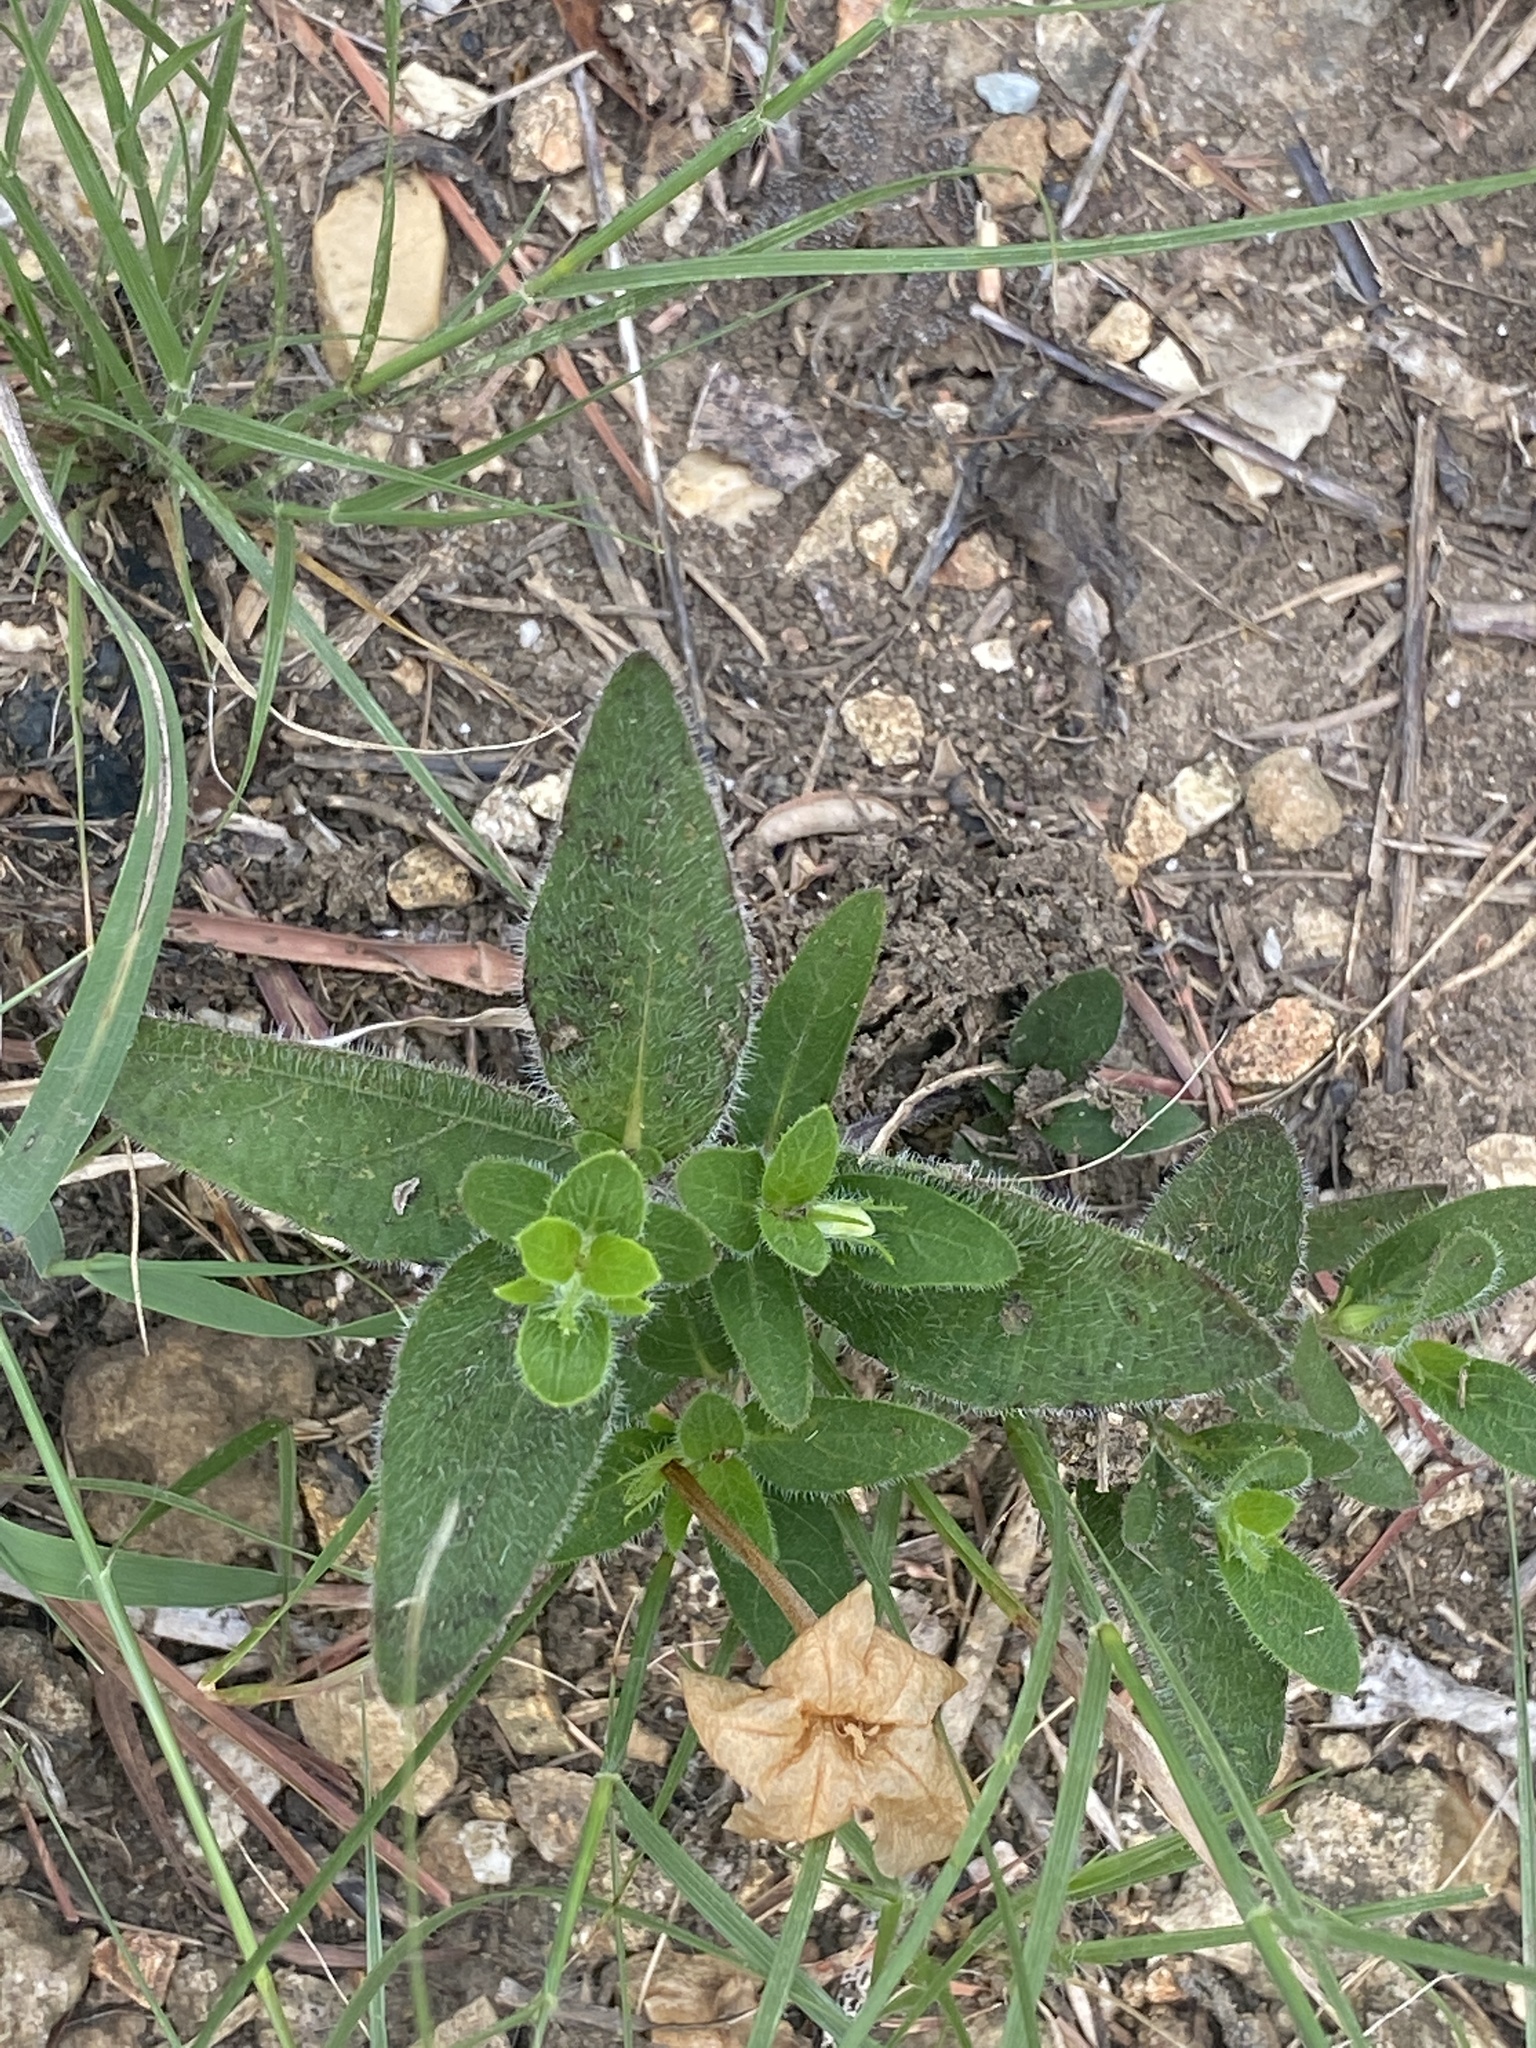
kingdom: Plantae
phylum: Tracheophyta
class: Magnoliopsida
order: Lamiales
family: Acanthaceae
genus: Ruellia
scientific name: Ruellia humilis
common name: Fringe-leaf ruellia
